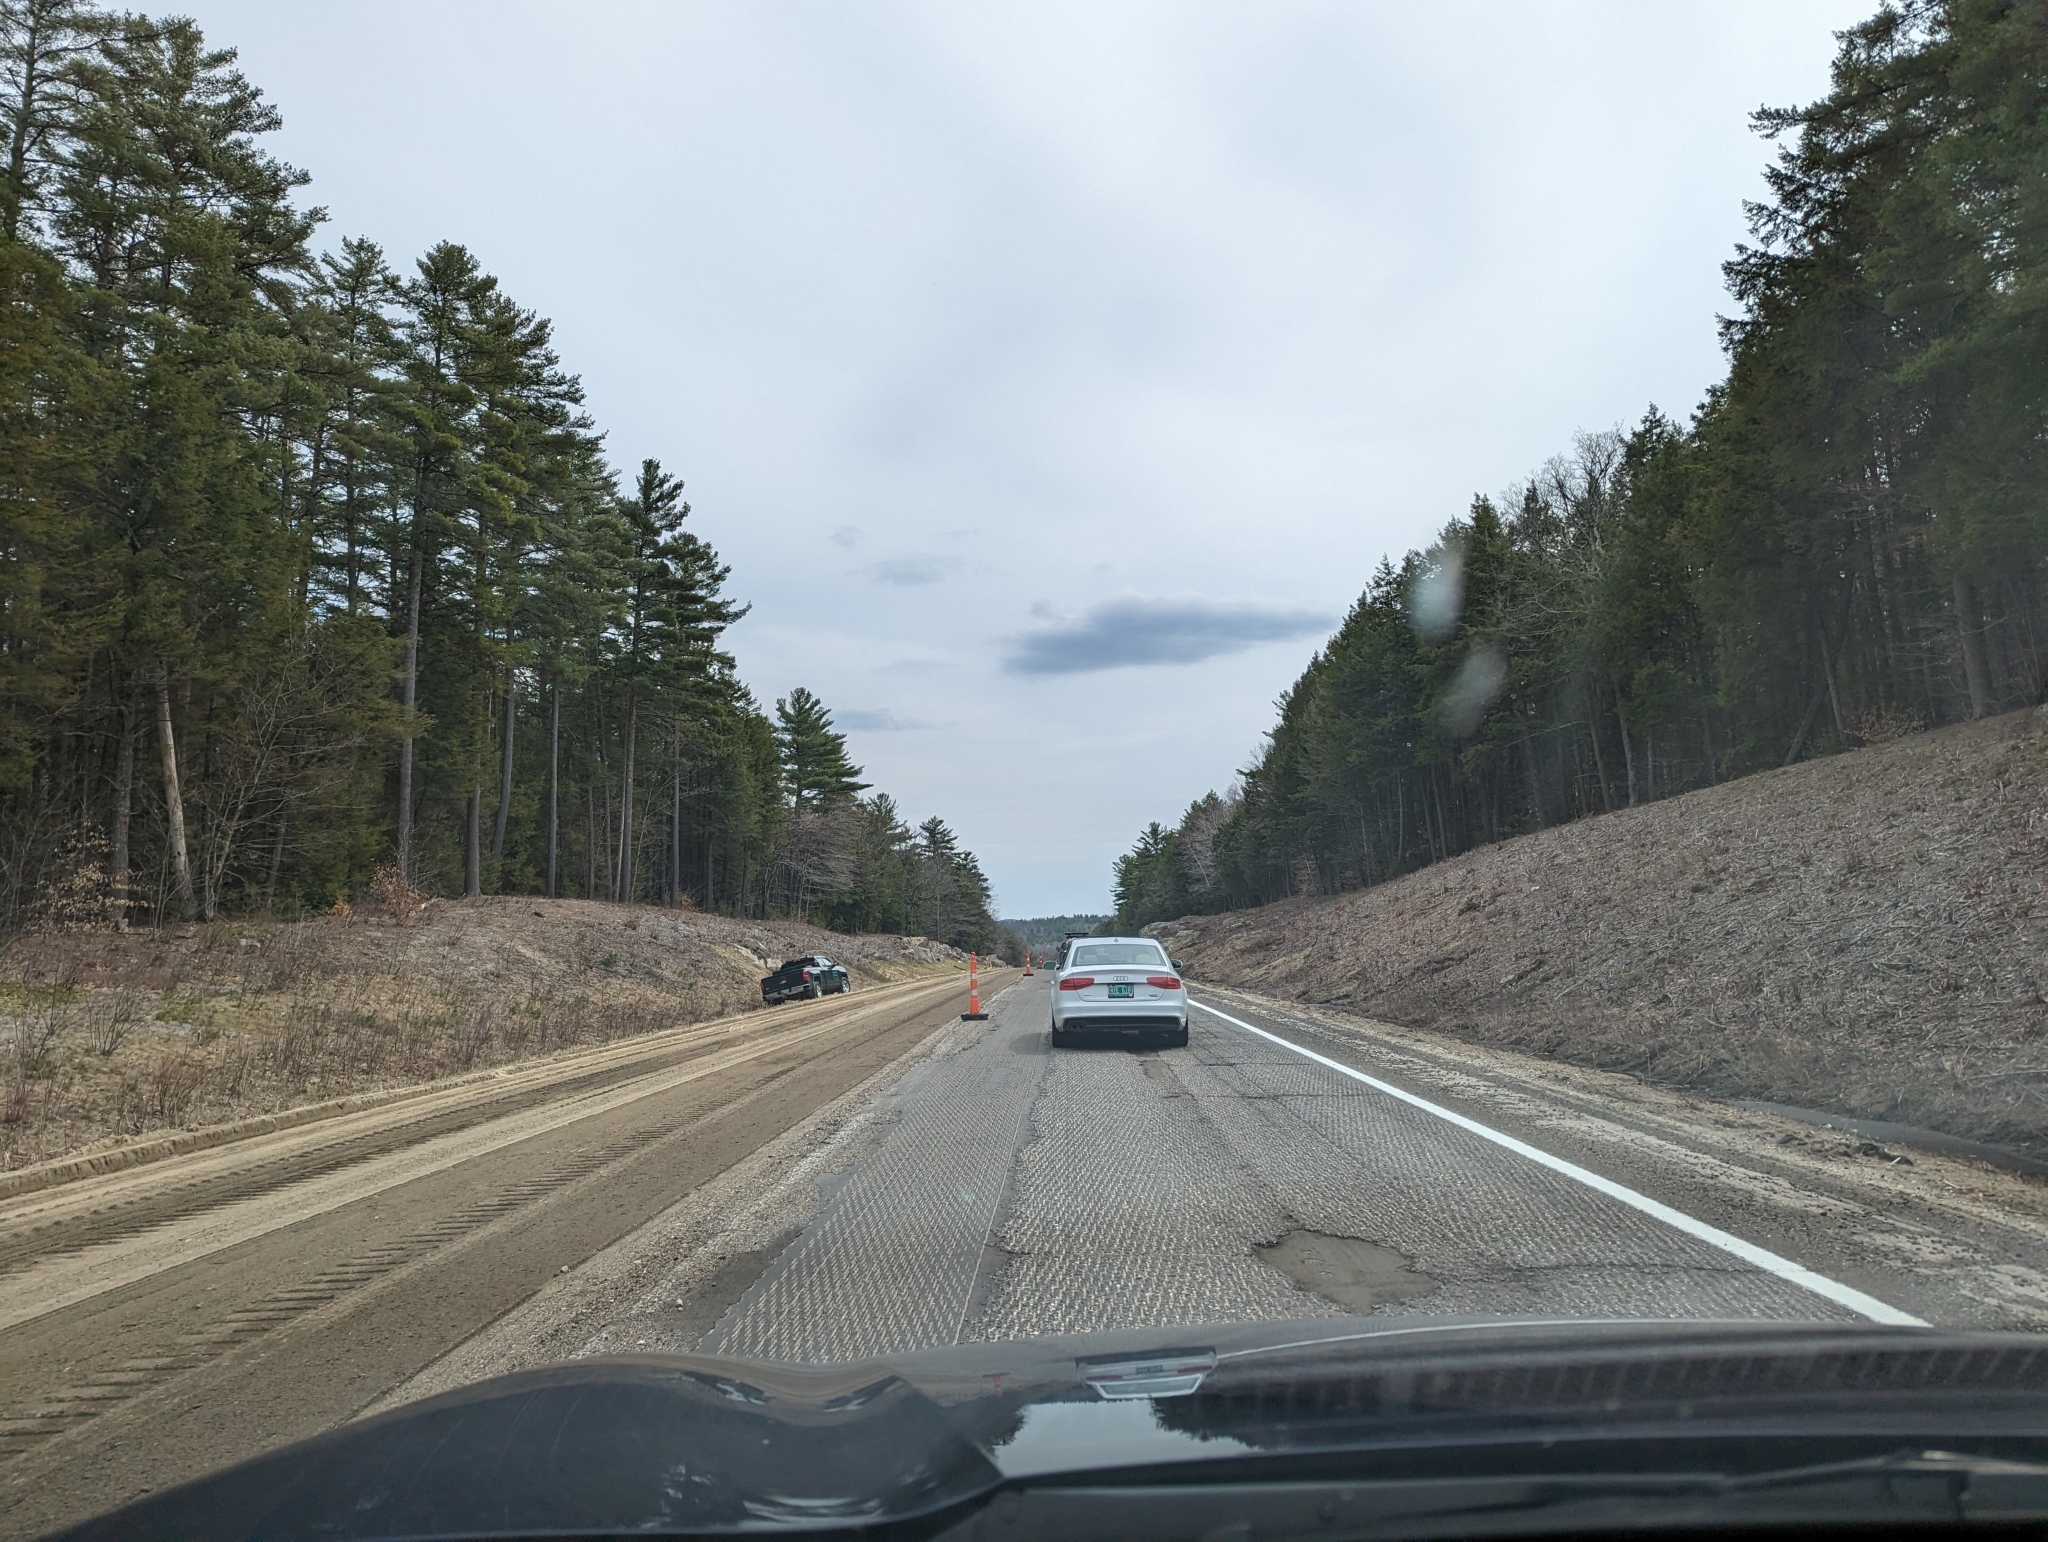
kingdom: Plantae
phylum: Tracheophyta
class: Pinopsida
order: Pinales
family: Pinaceae
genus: Pinus
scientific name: Pinus strobus
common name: Weymouth pine
